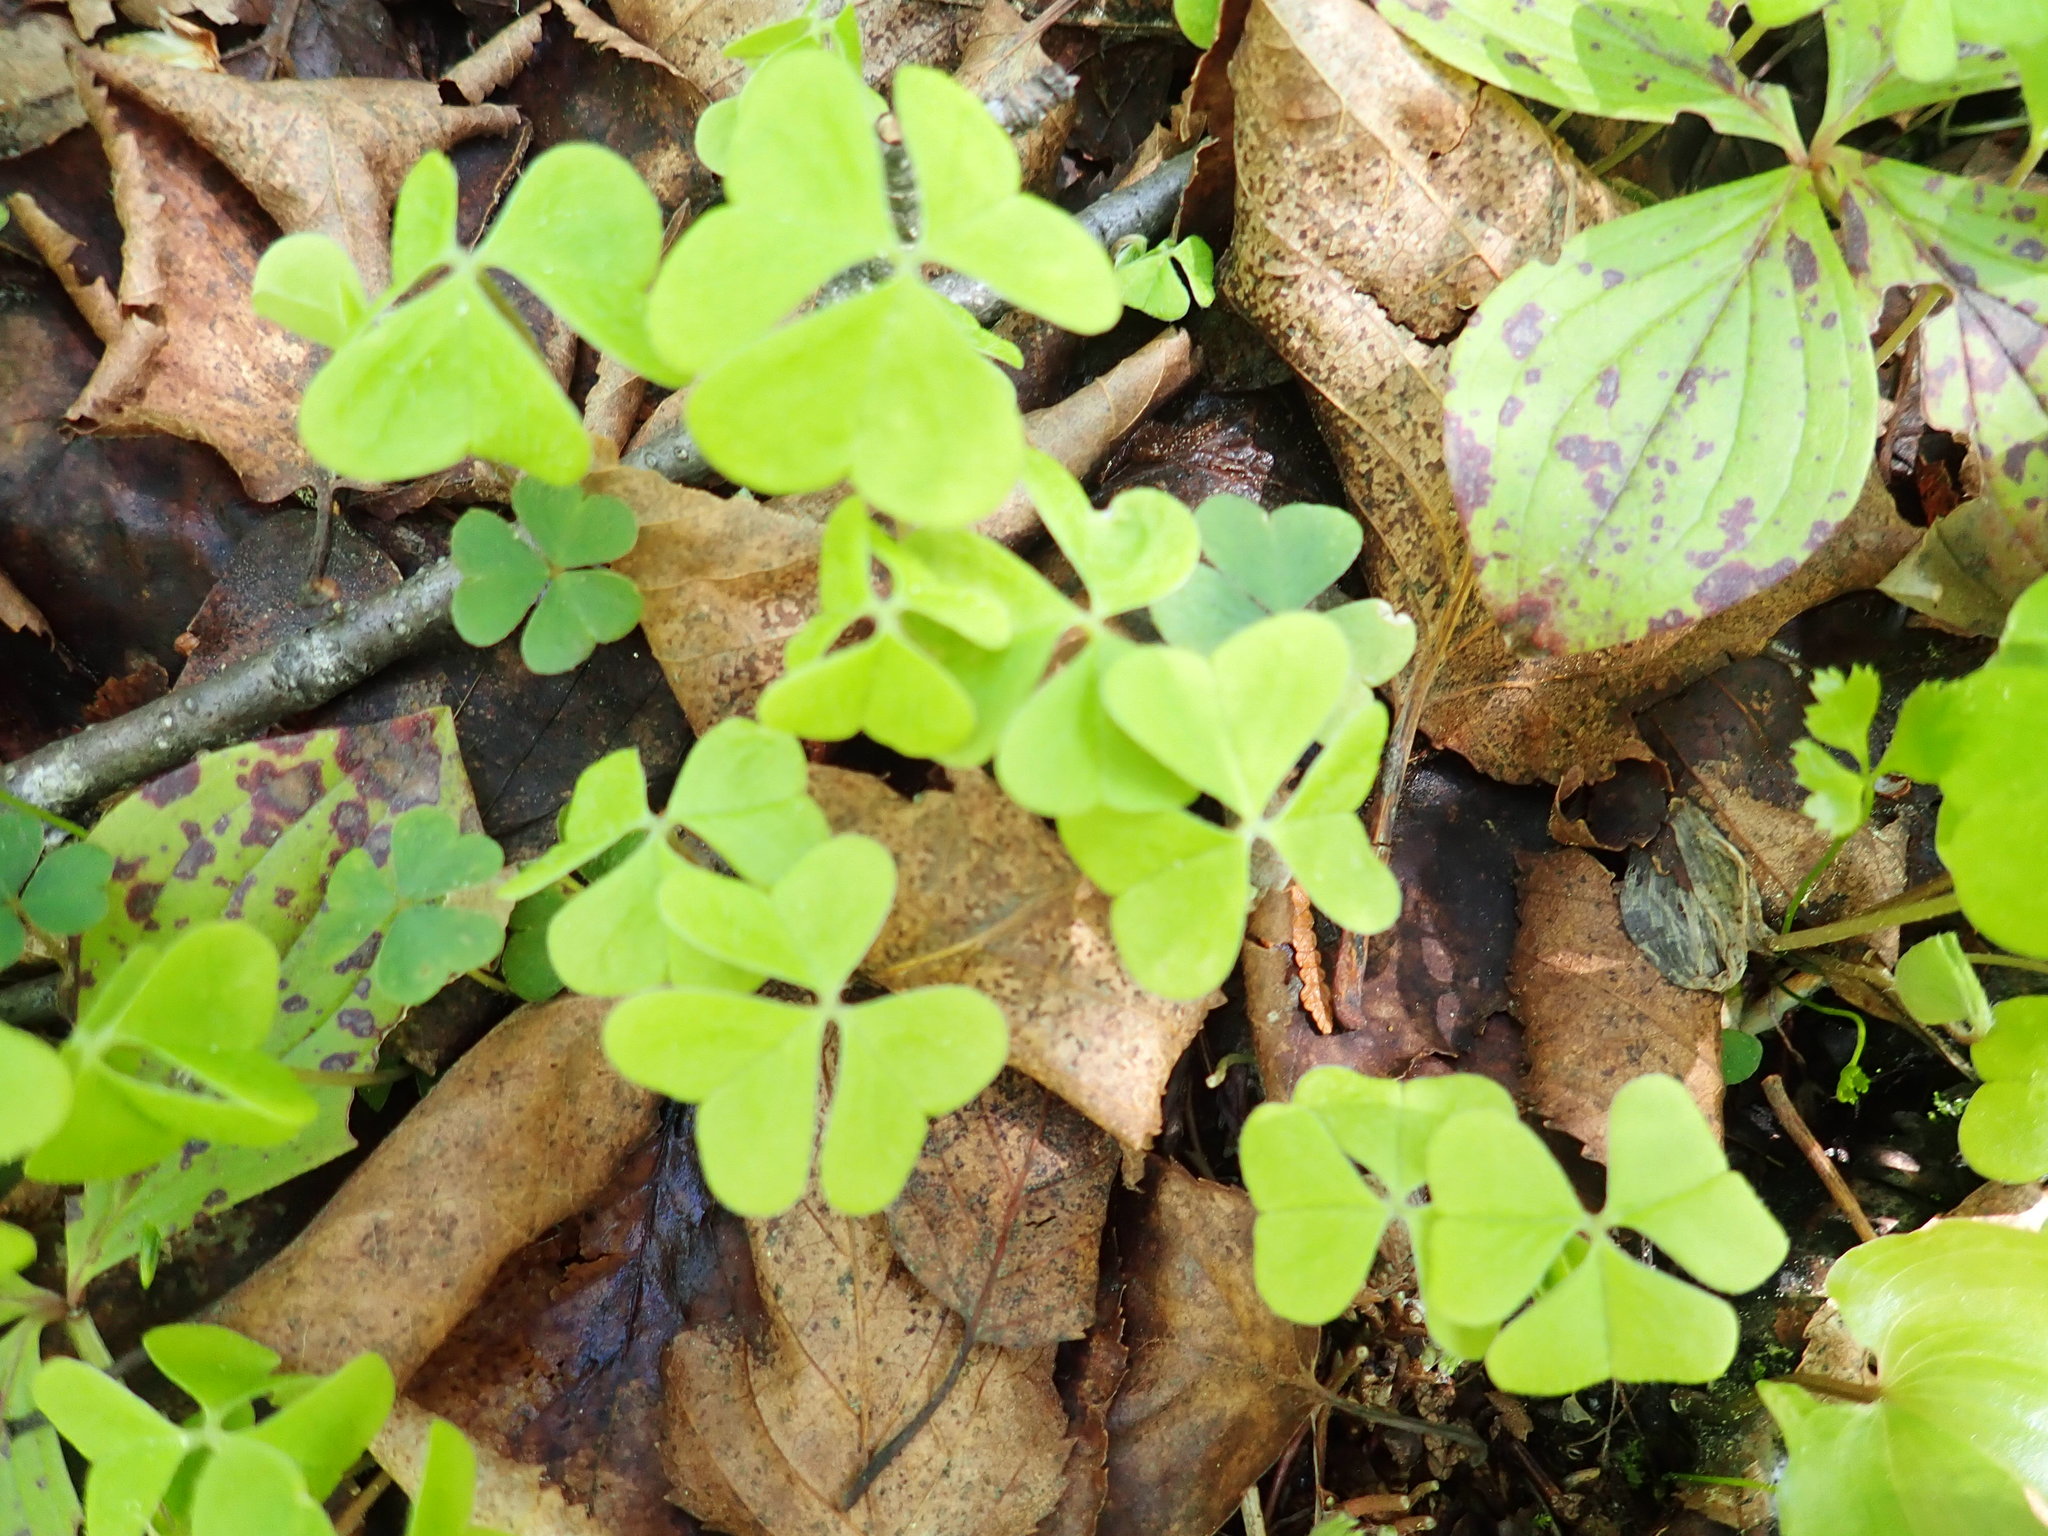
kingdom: Plantae
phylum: Tracheophyta
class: Magnoliopsida
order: Oxalidales
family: Oxalidaceae
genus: Oxalis
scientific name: Oxalis montana
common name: American wood-sorrel
